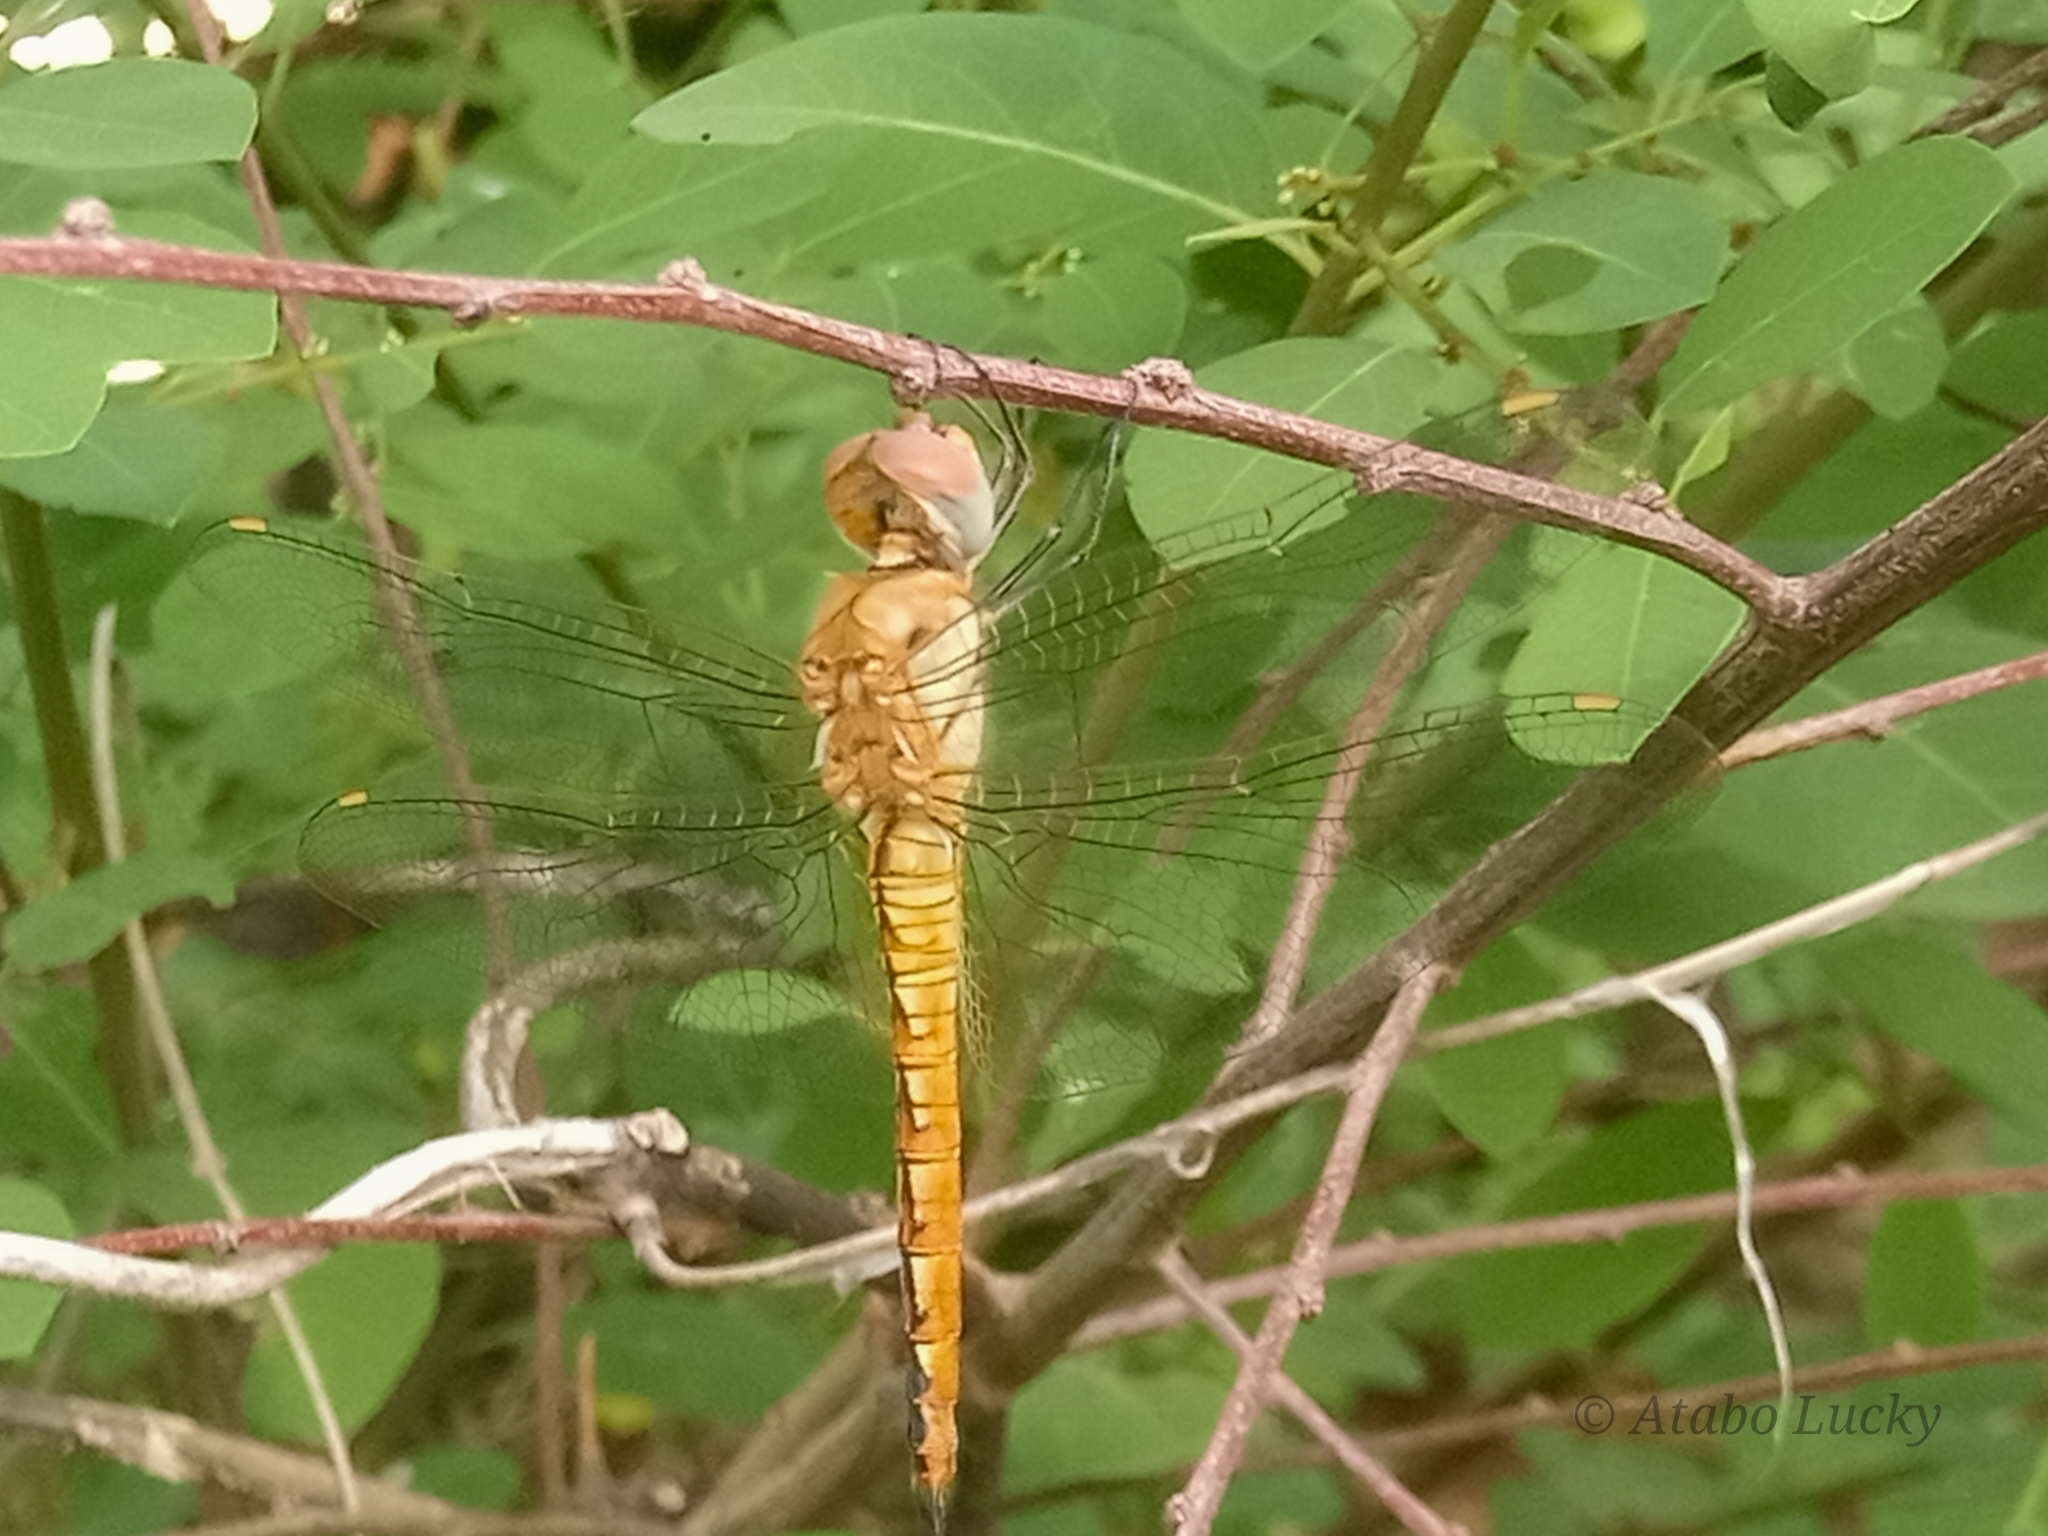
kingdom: Animalia
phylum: Arthropoda
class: Insecta
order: Odonata
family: Libellulidae
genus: Pantala
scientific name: Pantala flavescens
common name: Wandering glider
